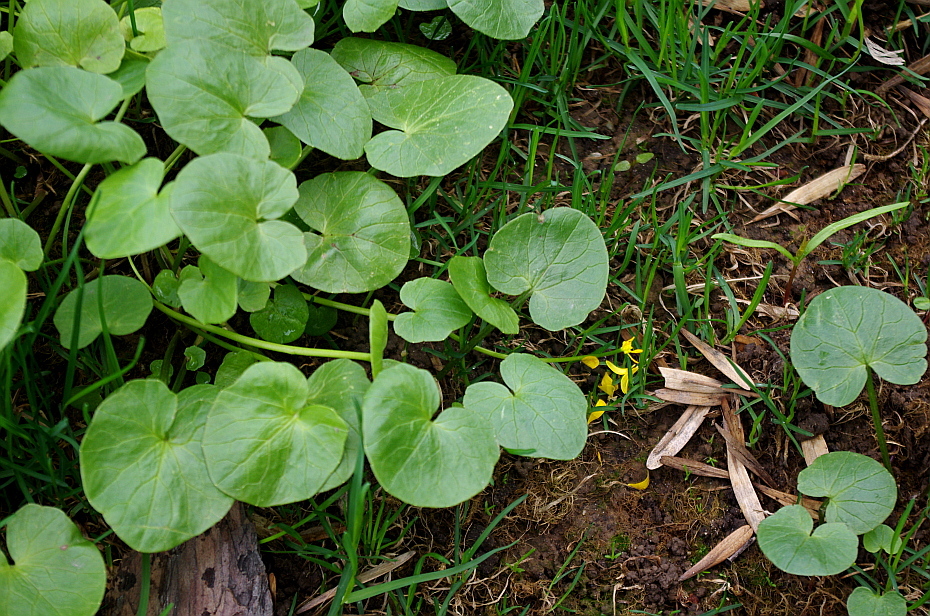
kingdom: Plantae
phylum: Tracheophyta
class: Magnoliopsida
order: Ranunculales
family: Ranunculaceae
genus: Ficaria
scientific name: Ficaria verna
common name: Lesser celandine
